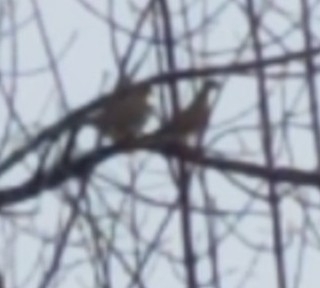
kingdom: Animalia
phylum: Chordata
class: Aves
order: Columbiformes
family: Columbidae
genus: Zenaida
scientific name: Zenaida macroura
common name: Mourning dove
